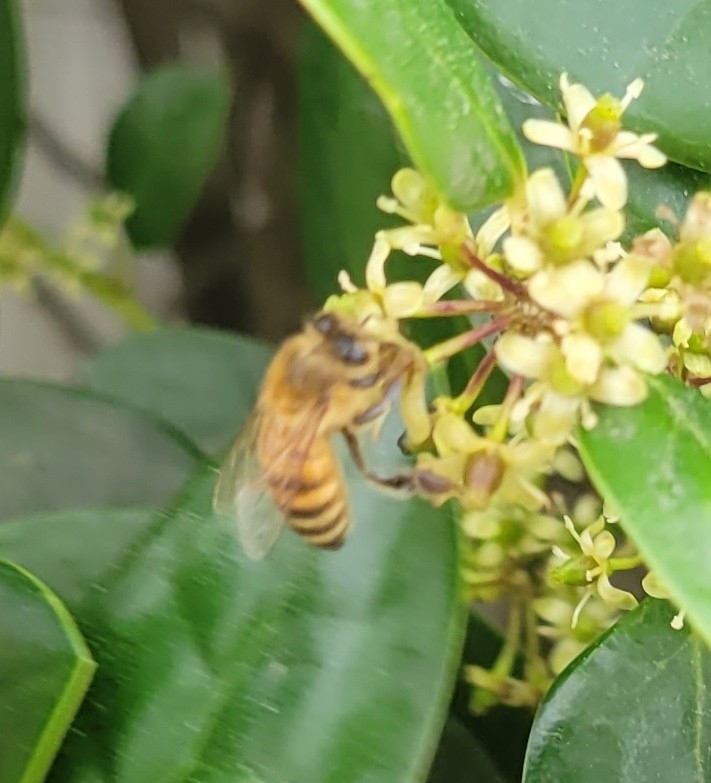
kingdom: Animalia
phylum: Arthropoda
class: Insecta
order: Hymenoptera
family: Apidae
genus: Apis
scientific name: Apis mellifera
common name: Honey bee
